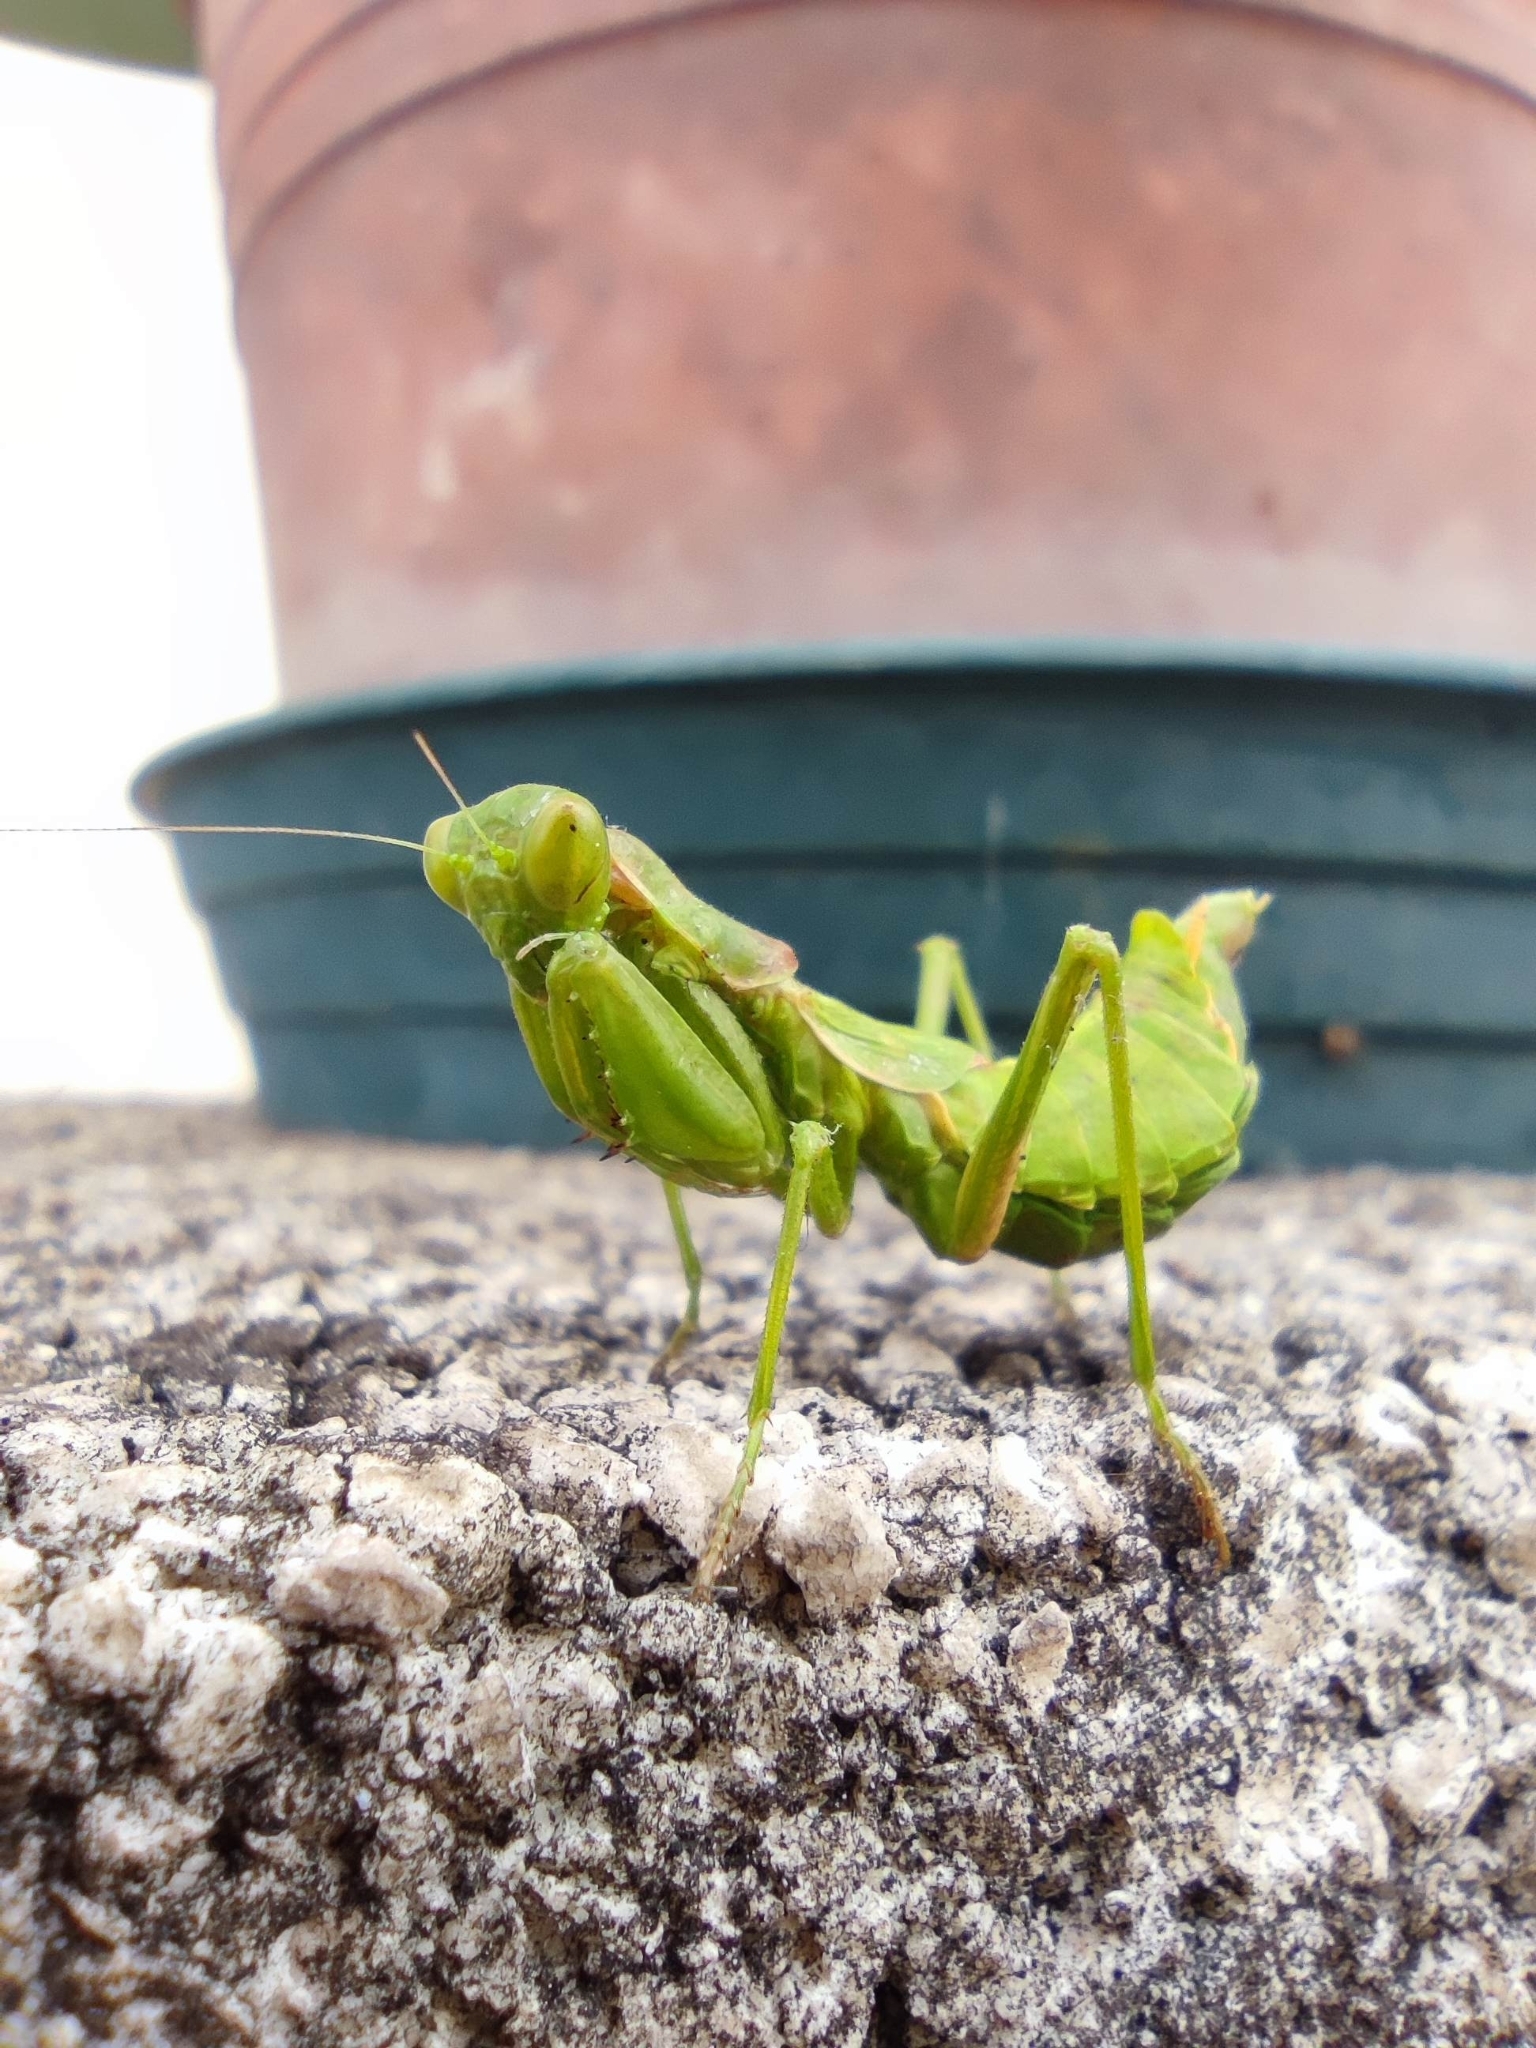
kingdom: Animalia
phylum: Arthropoda
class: Insecta
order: Mantodea
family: Amelidae
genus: Ameles
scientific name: Ameles spallanzania
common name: European dwarf mantis
